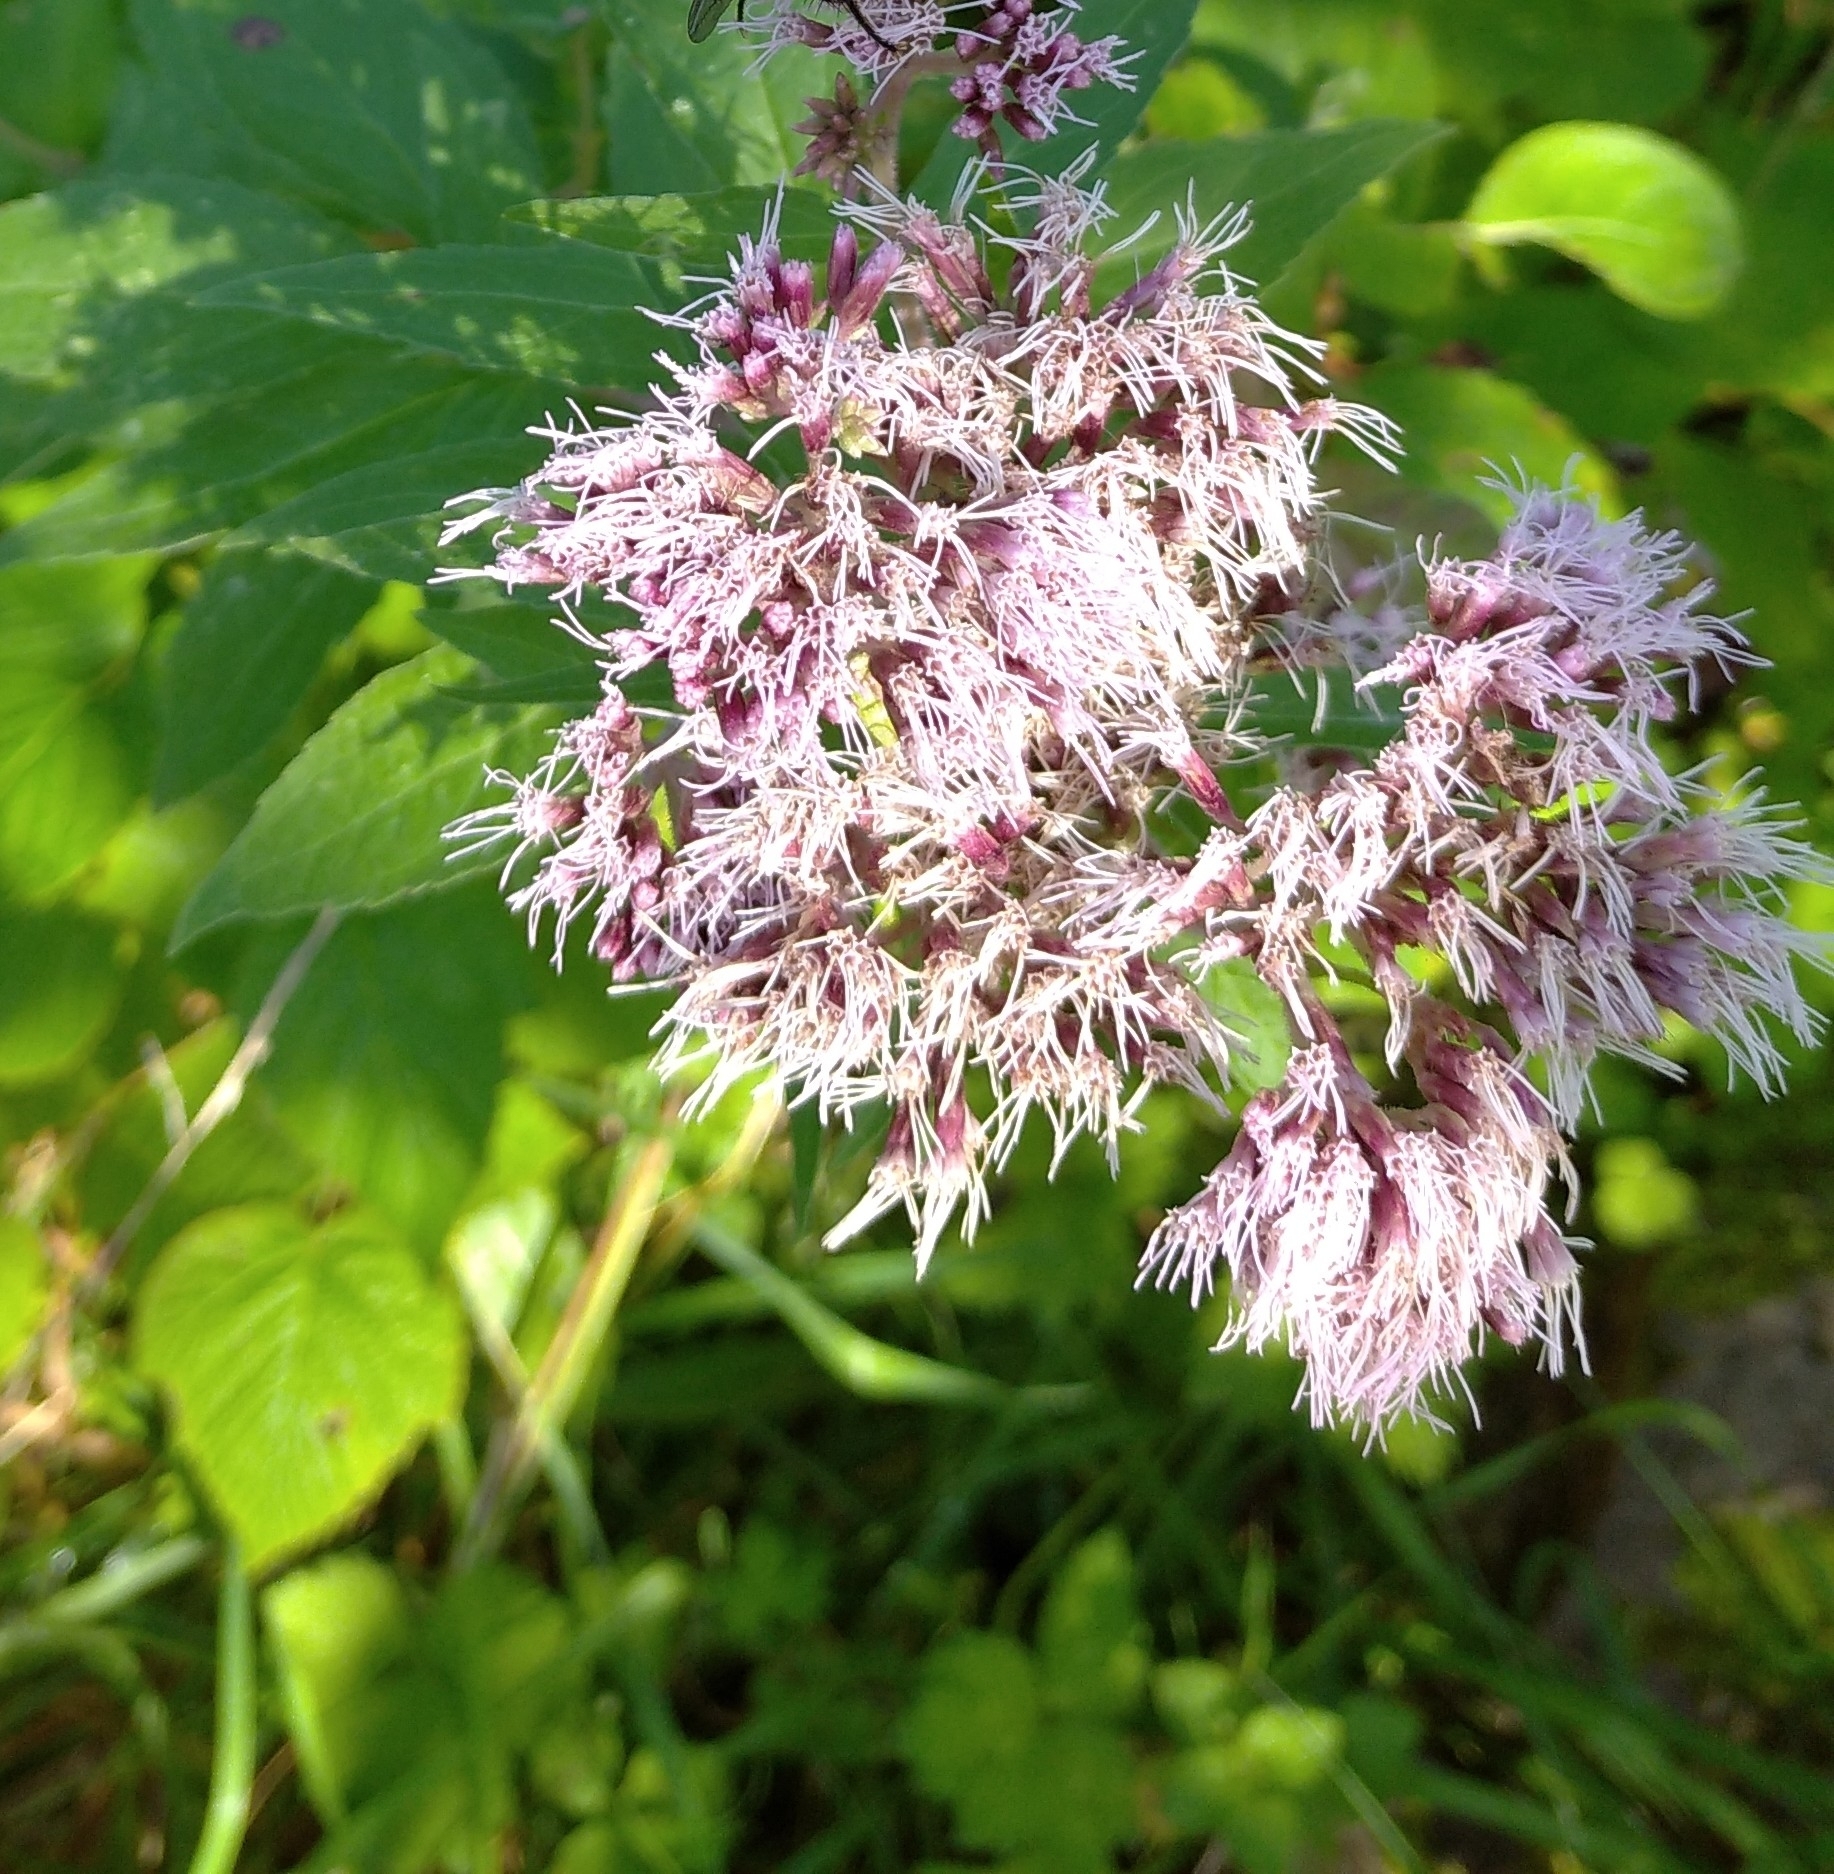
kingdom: Plantae
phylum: Tracheophyta
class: Magnoliopsida
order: Asterales
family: Asteraceae
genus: Eupatorium
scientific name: Eupatorium cannabinum
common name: Hemp-agrimony
